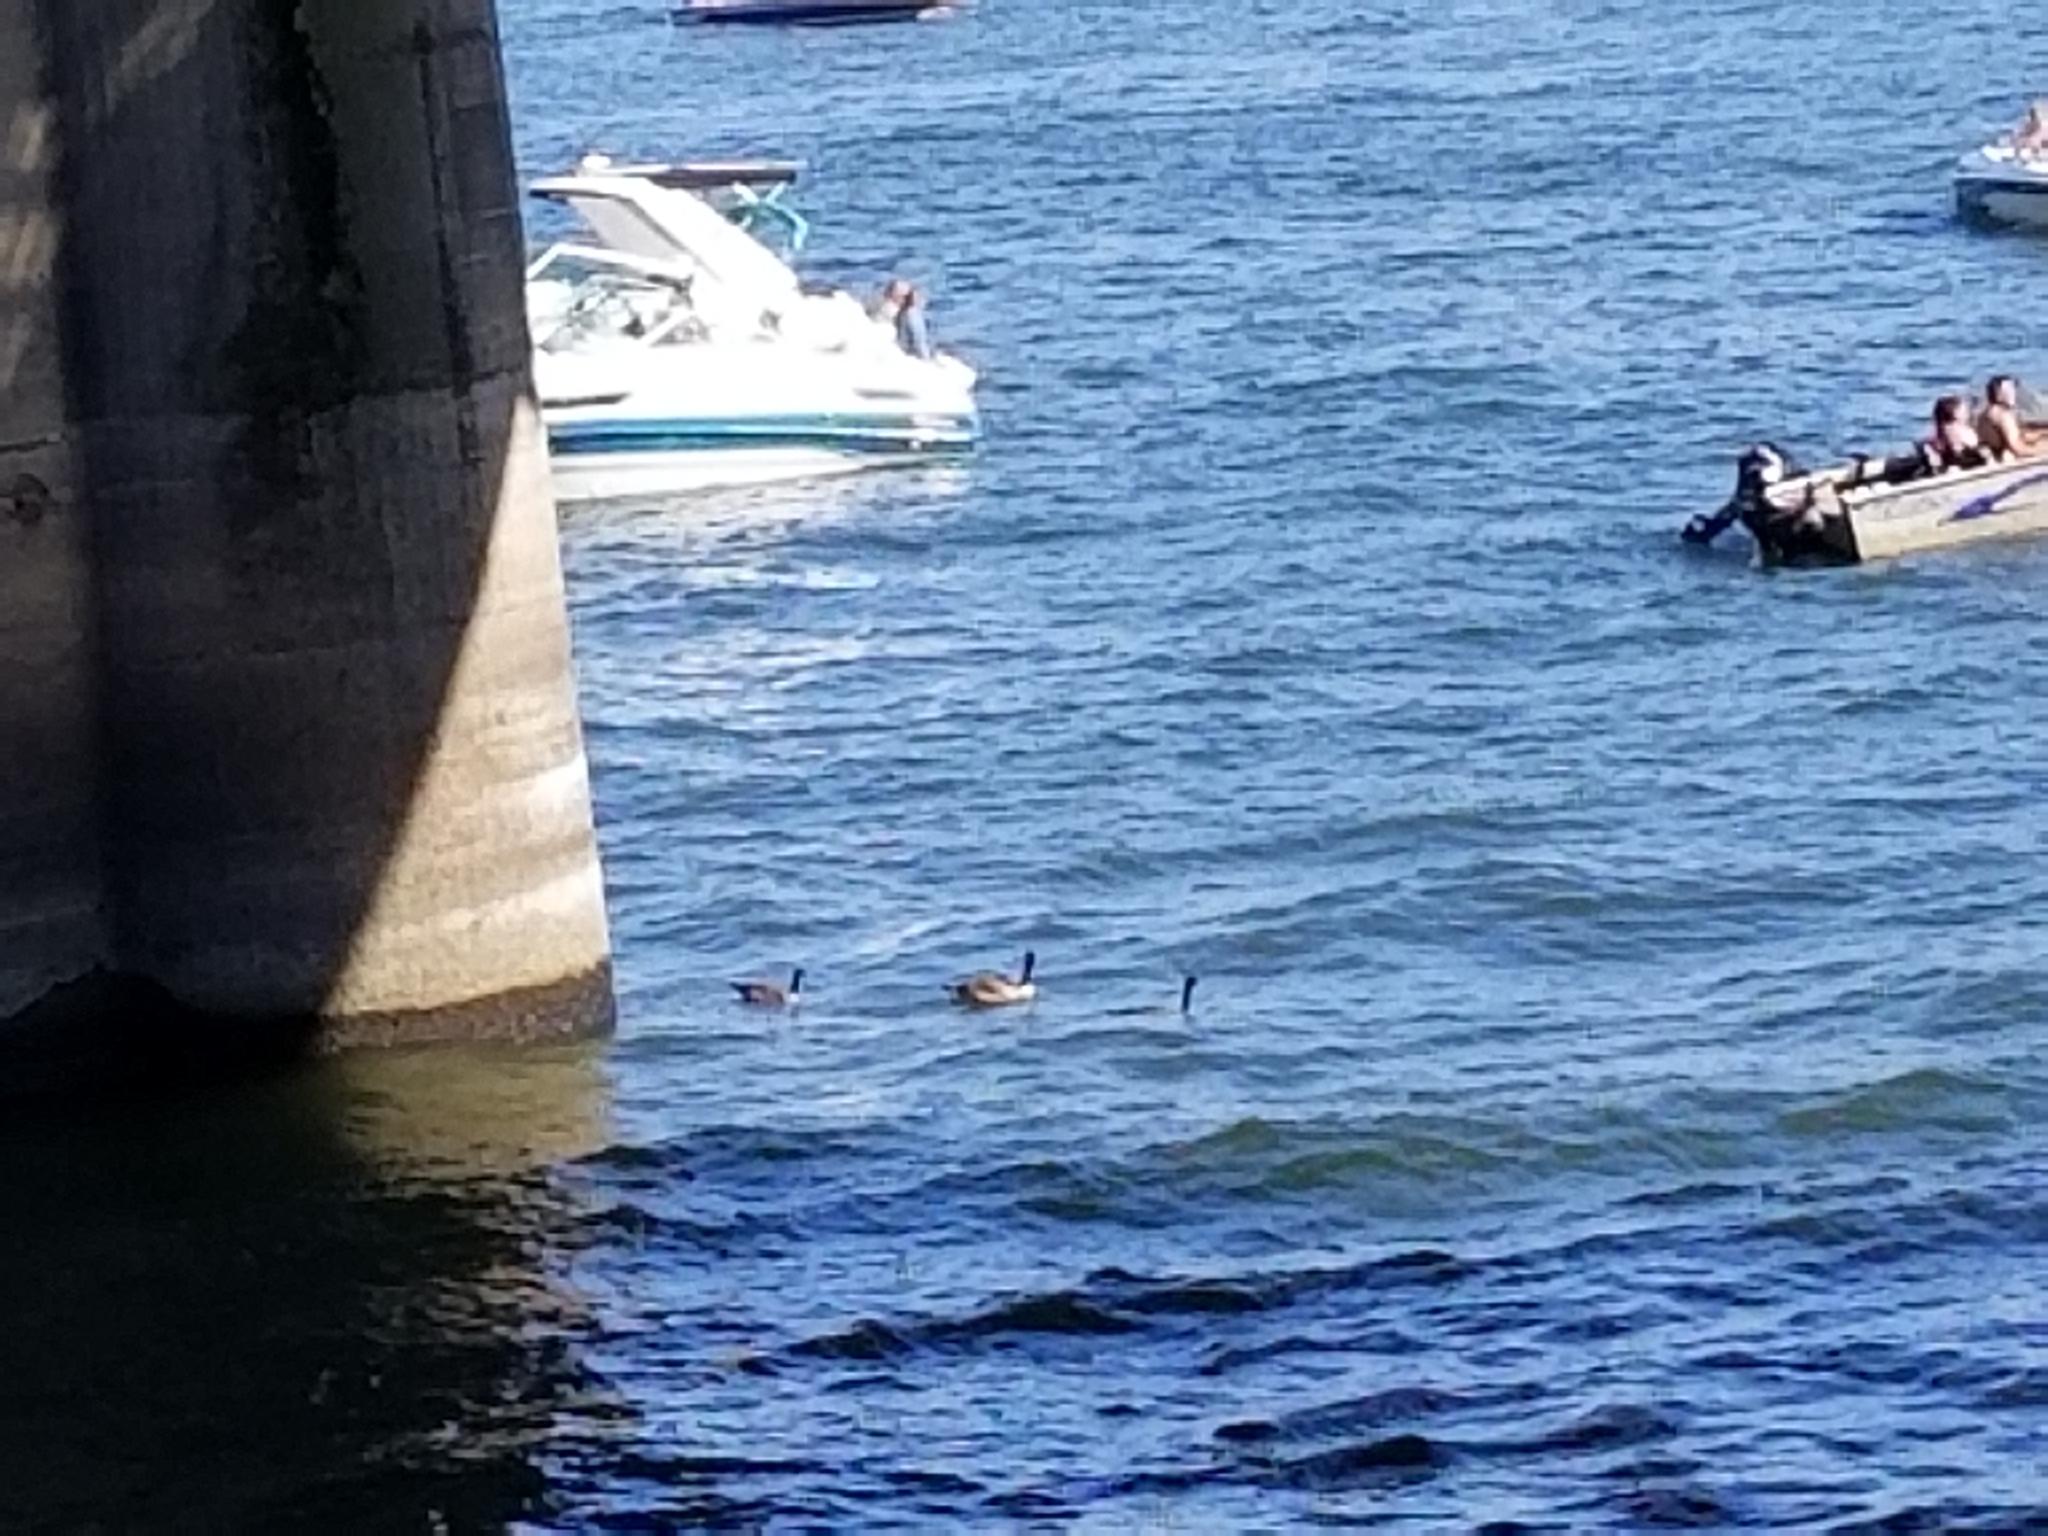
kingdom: Animalia
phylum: Chordata
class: Aves
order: Anseriformes
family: Anatidae
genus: Branta
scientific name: Branta canadensis
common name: Canada goose
